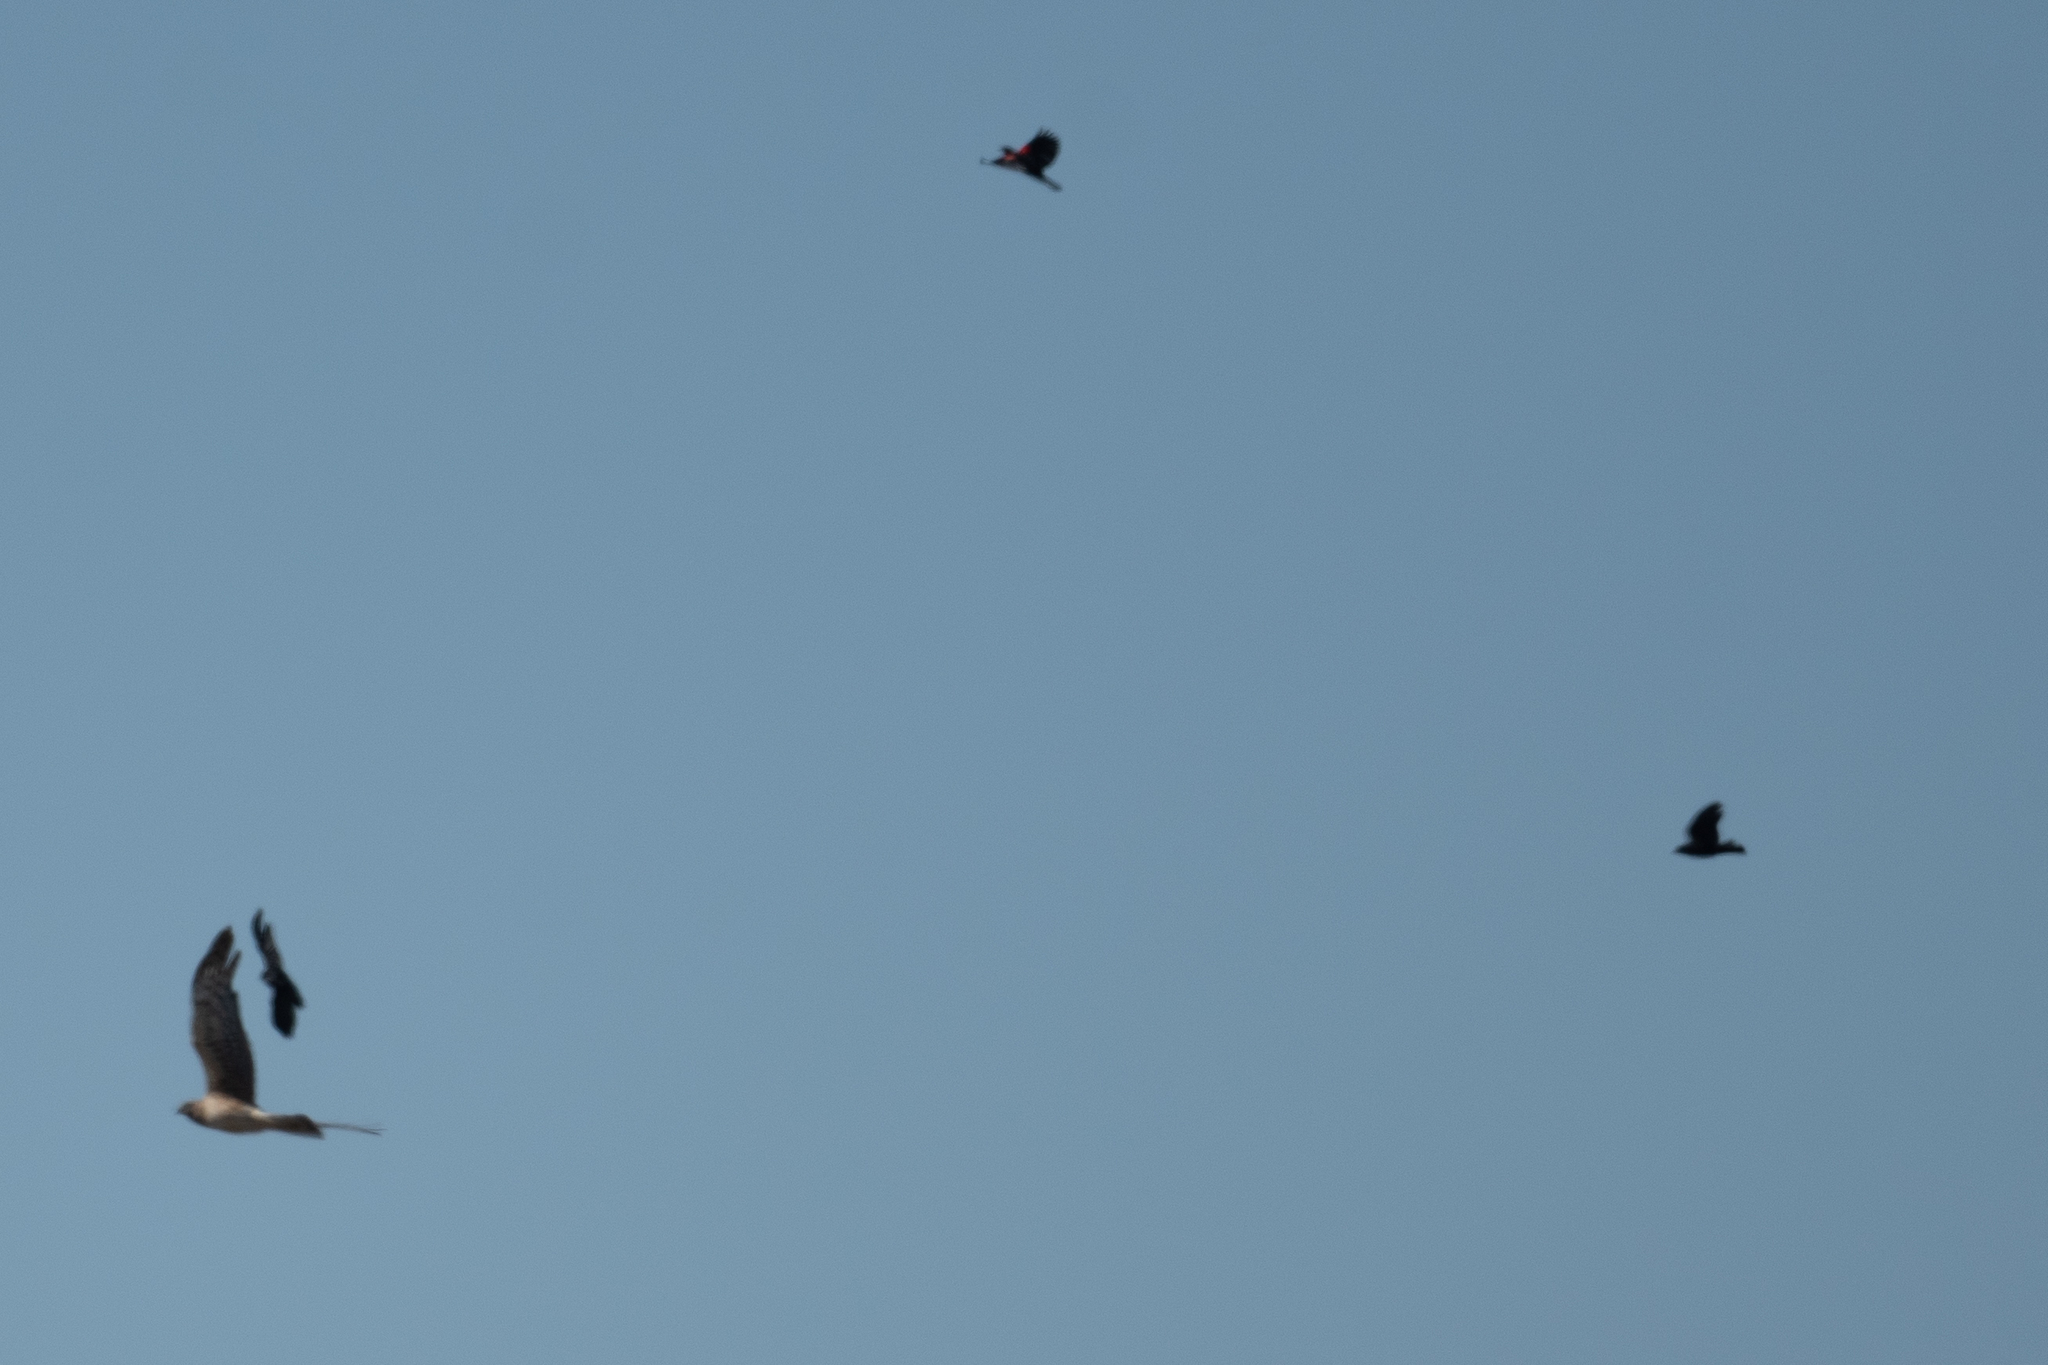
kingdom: Animalia
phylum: Chordata
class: Aves
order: Accipitriformes
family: Accipitridae
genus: Circus
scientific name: Circus cyaneus
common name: Hen harrier
